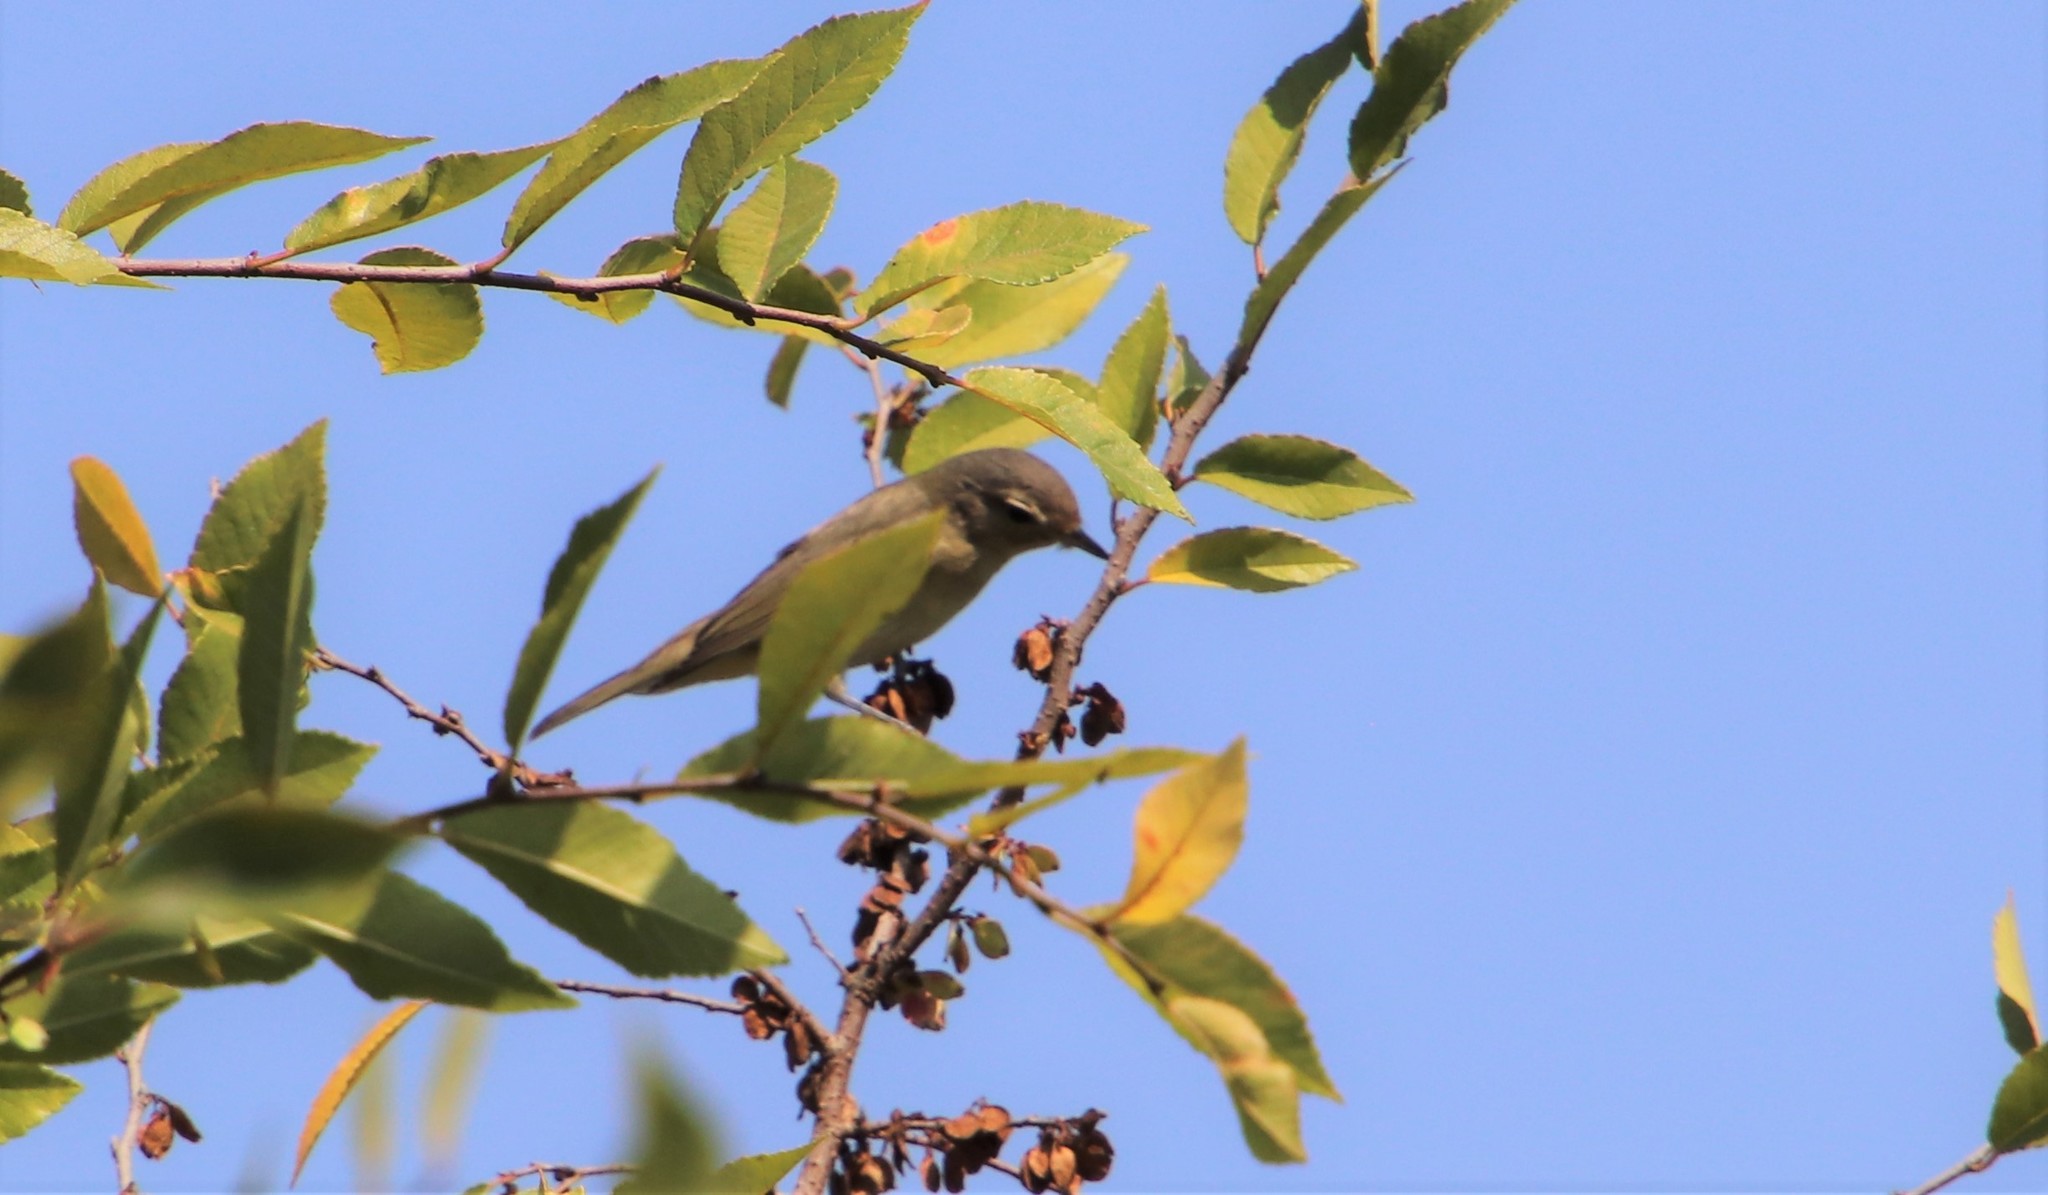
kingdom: Animalia
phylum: Chordata
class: Aves
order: Passeriformes
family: Vireonidae
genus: Vireo
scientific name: Vireo gilvus
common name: Warbling vireo
